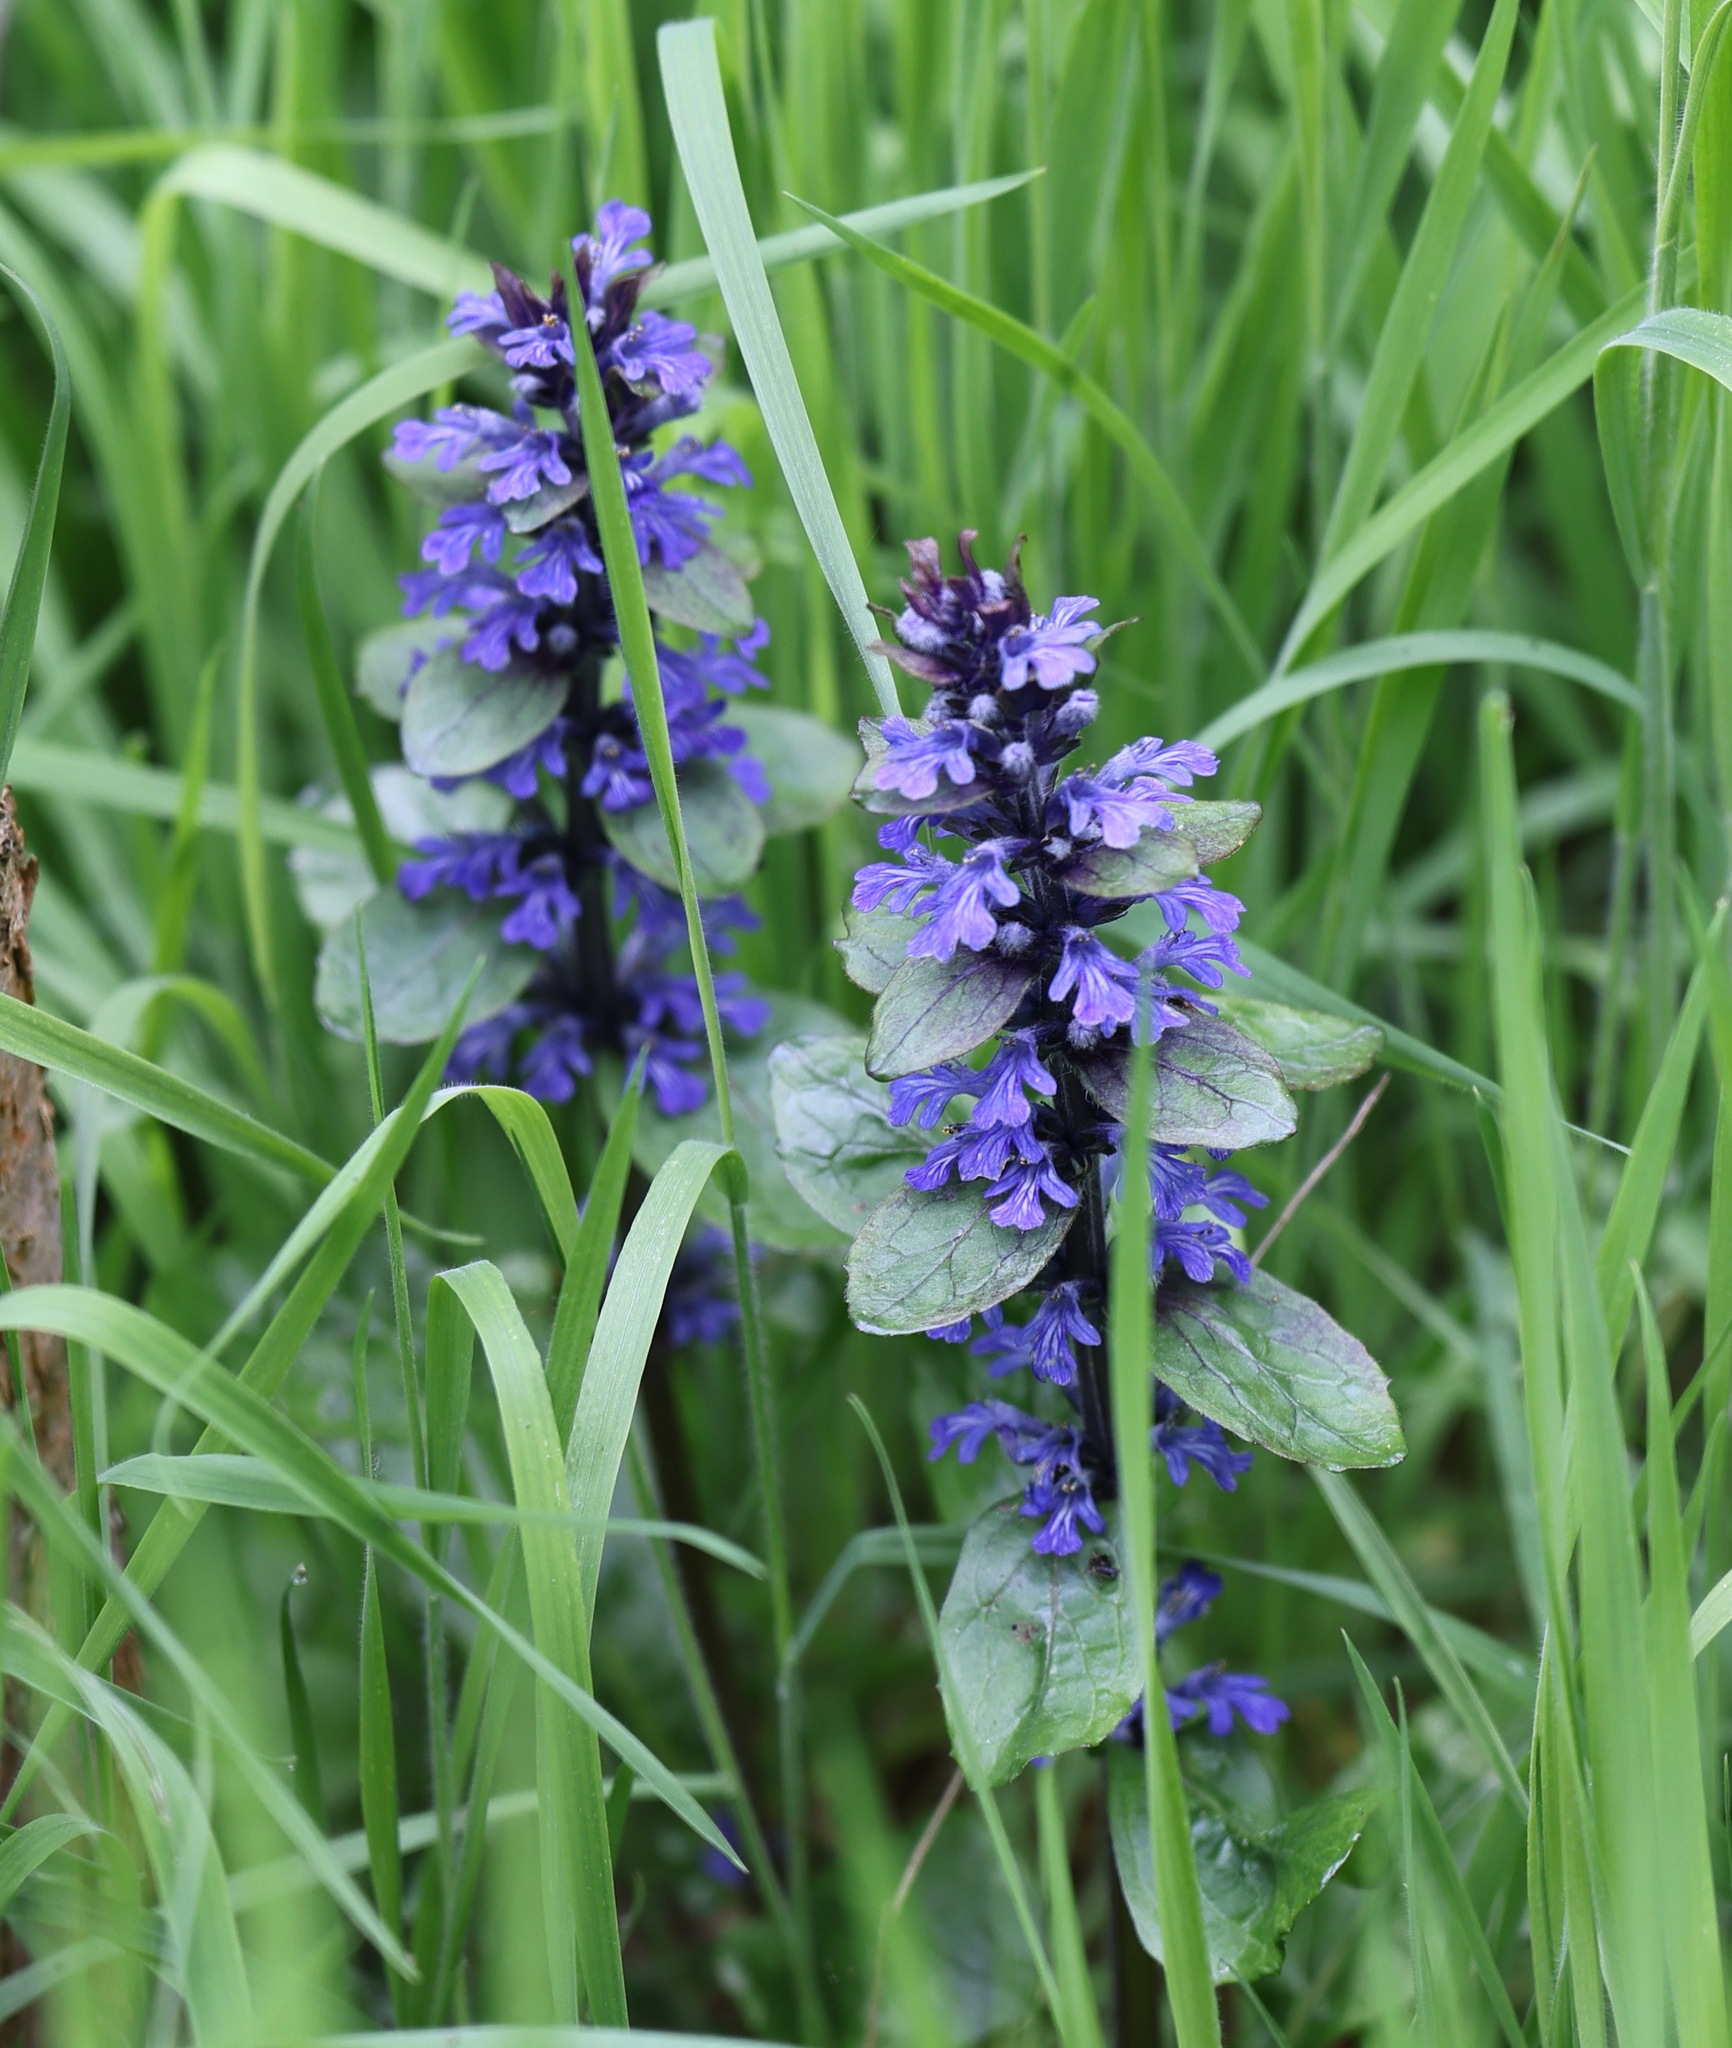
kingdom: Plantae
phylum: Tracheophyta
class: Magnoliopsida
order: Lamiales
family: Lamiaceae
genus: Ajuga
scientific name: Ajuga reptans
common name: Bugle
